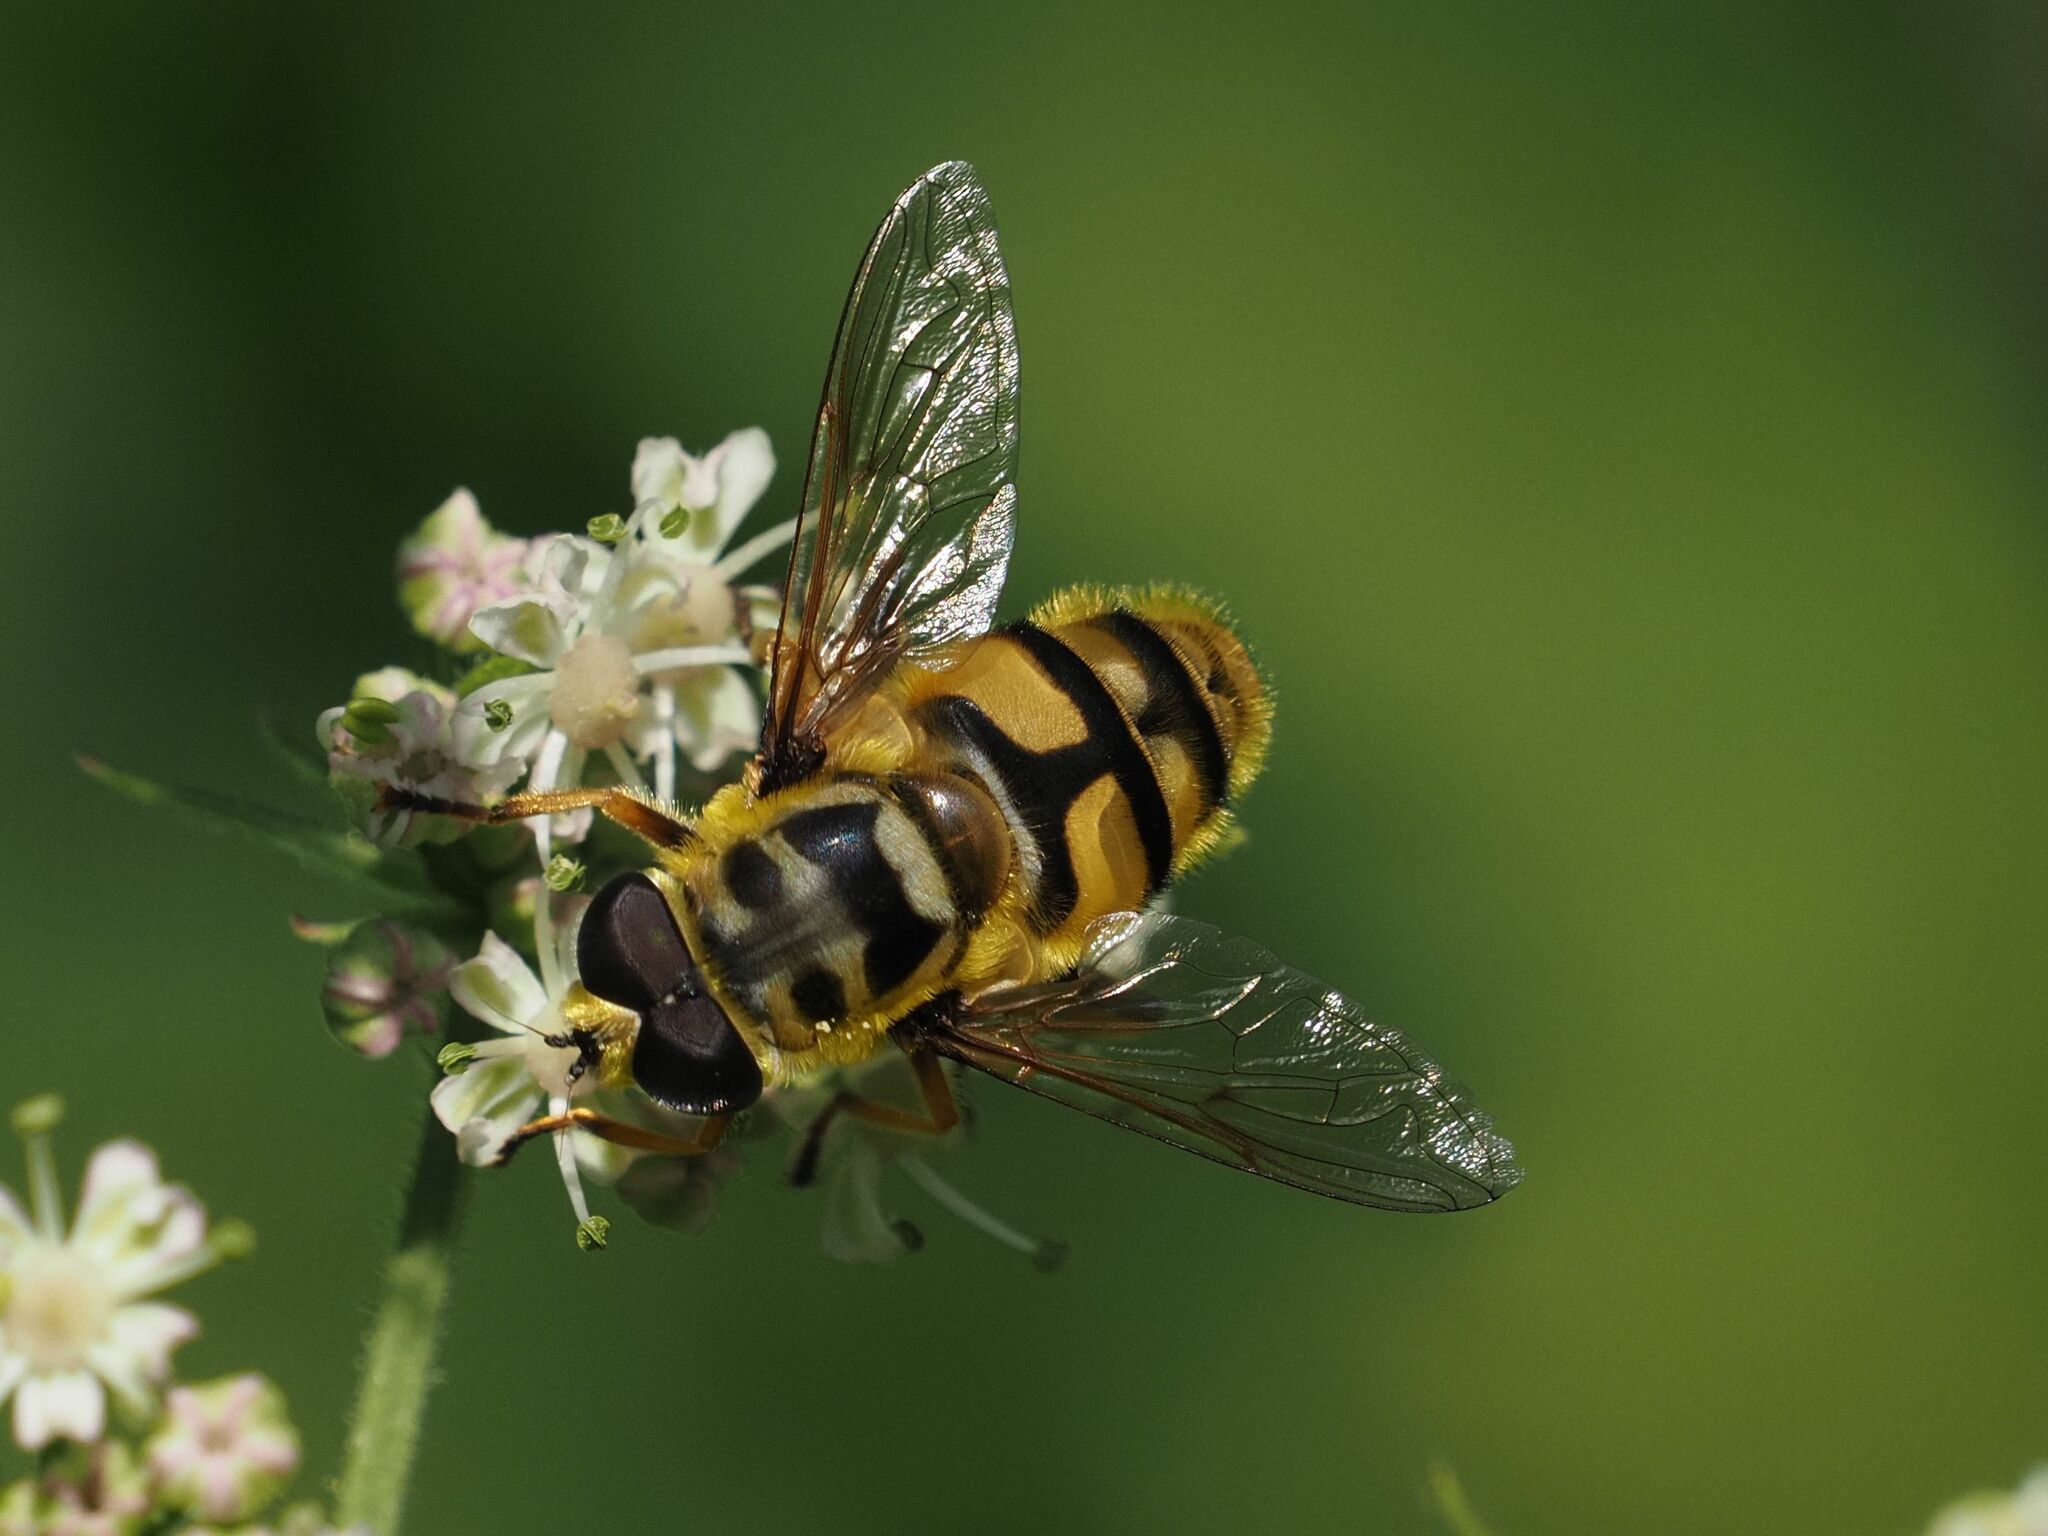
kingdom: Animalia
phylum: Arthropoda
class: Insecta
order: Diptera
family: Syrphidae
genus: Myathropa
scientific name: Myathropa florea
